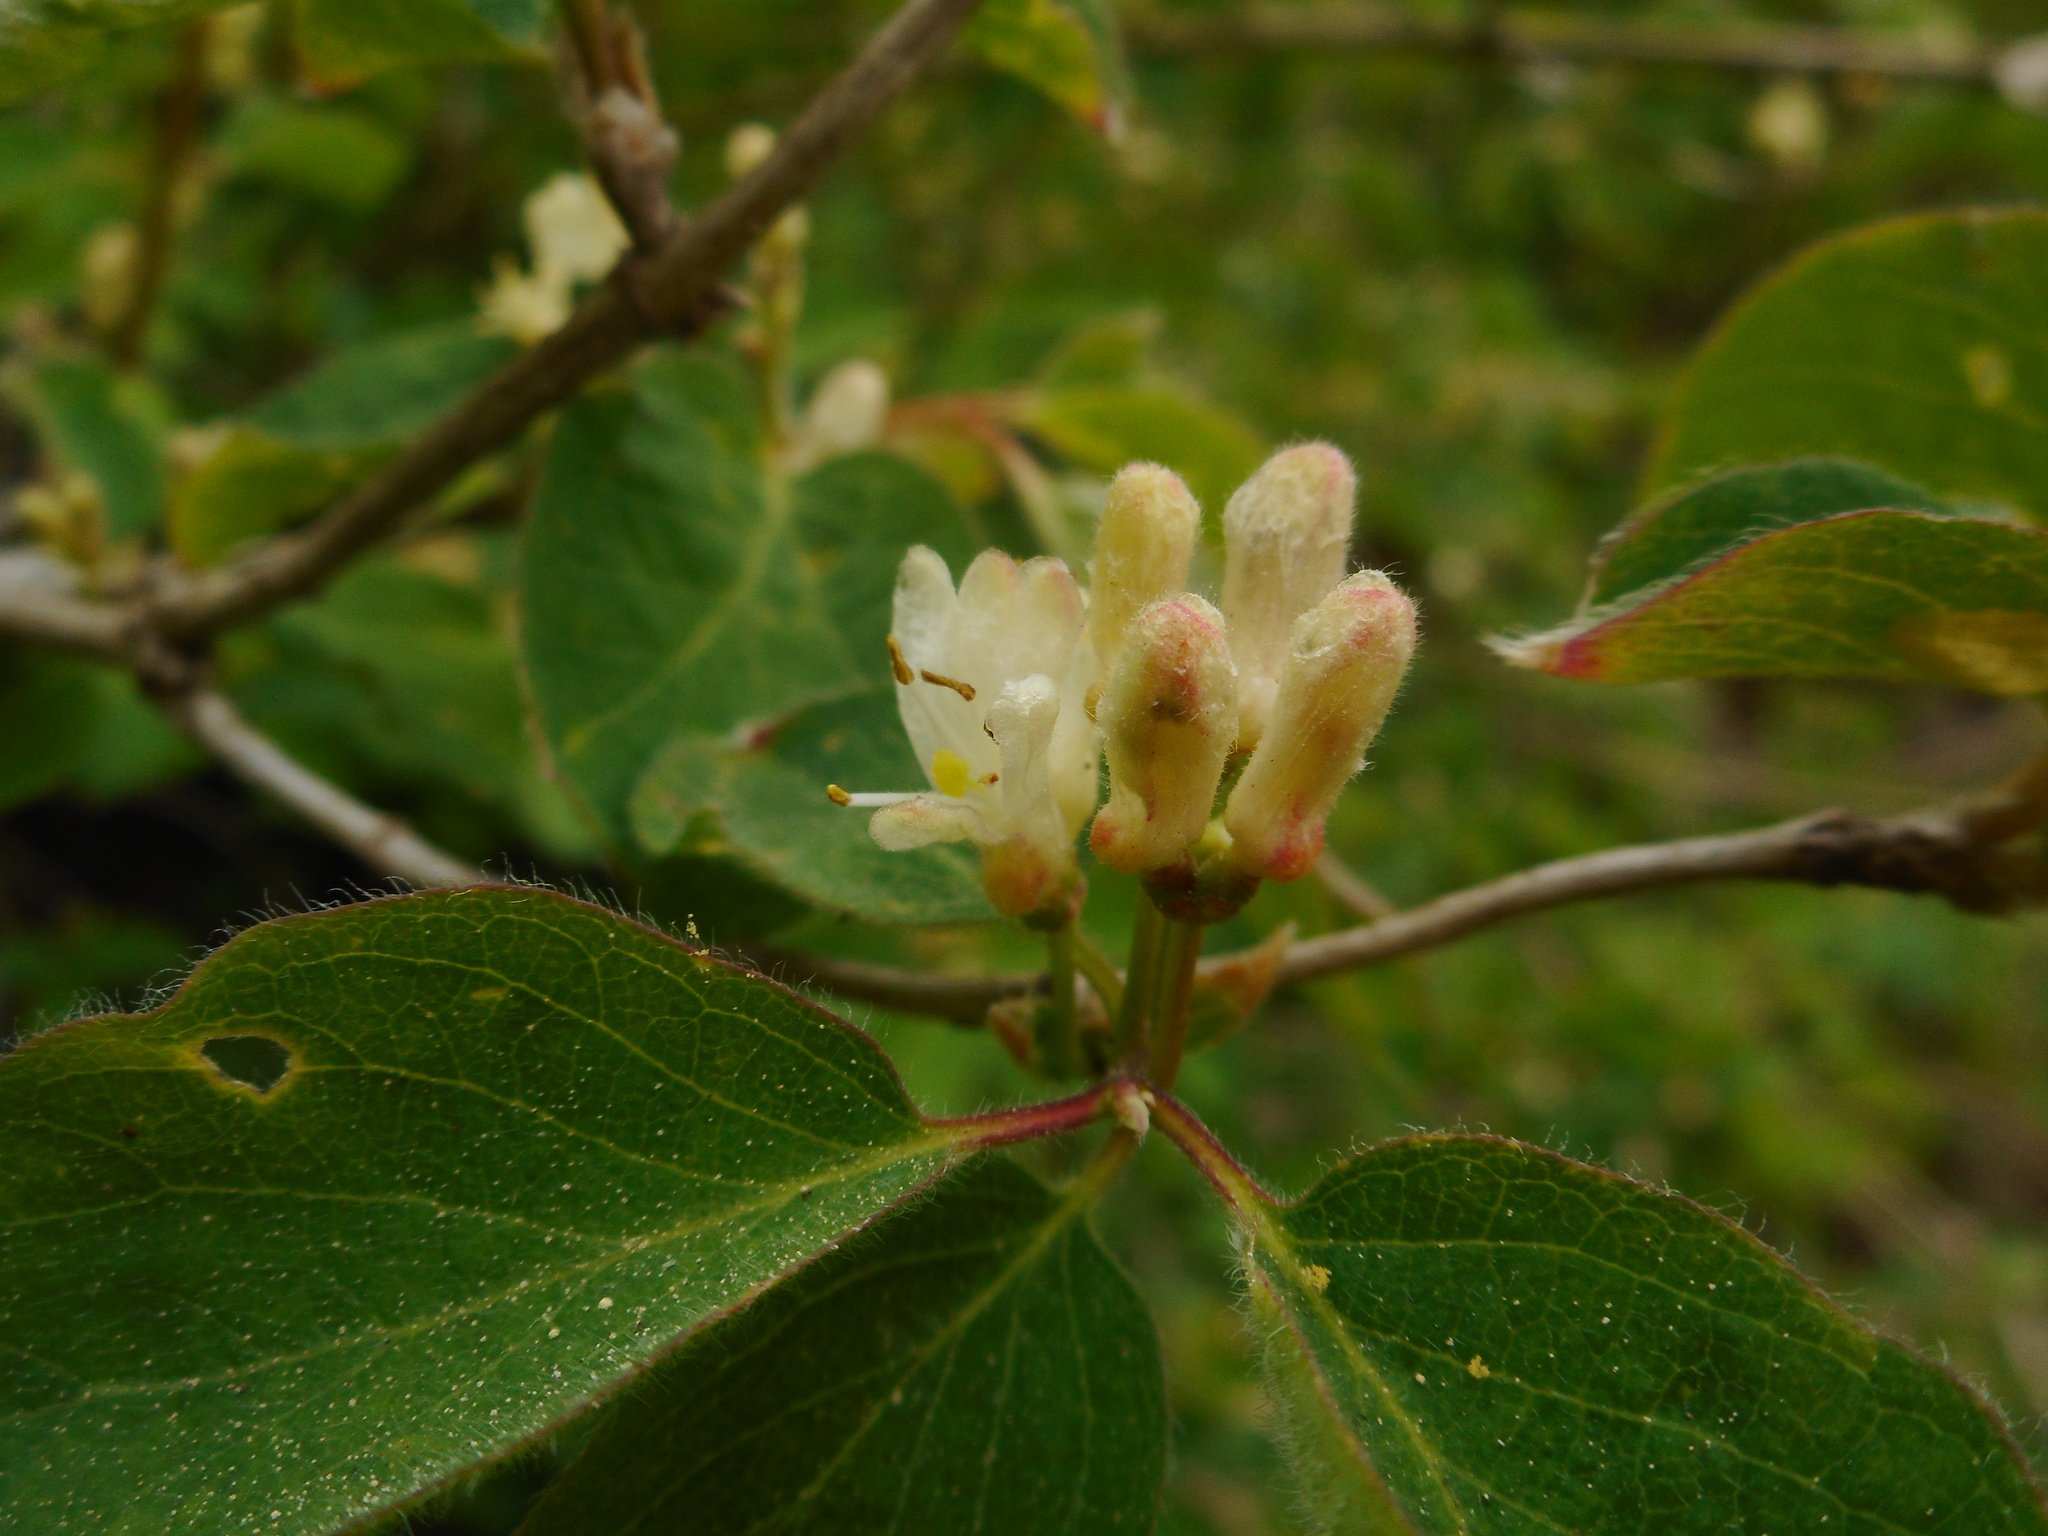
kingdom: Plantae
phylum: Tracheophyta
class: Magnoliopsida
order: Dipsacales
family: Caprifoliaceae
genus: Lonicera
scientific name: Lonicera xylosteum
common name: Fly honeysuckle
